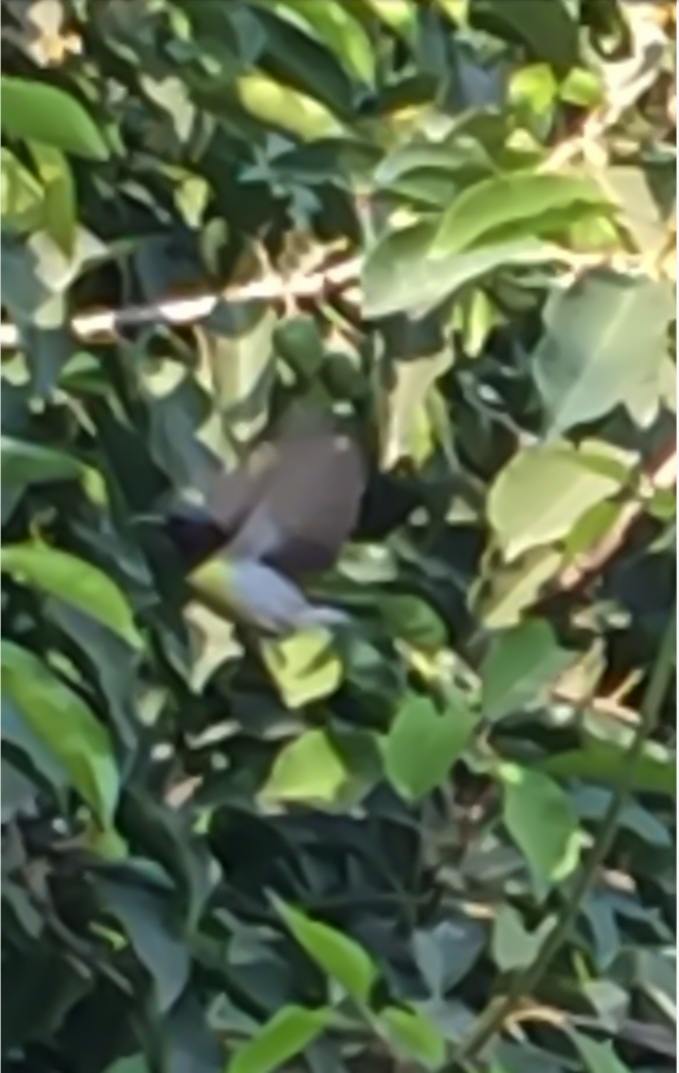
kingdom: Animalia
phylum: Chordata
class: Aves
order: Passeriformes
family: Nectariniidae
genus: Leptocoma
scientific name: Leptocoma zeylonica
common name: Purple-rumped sunbird
